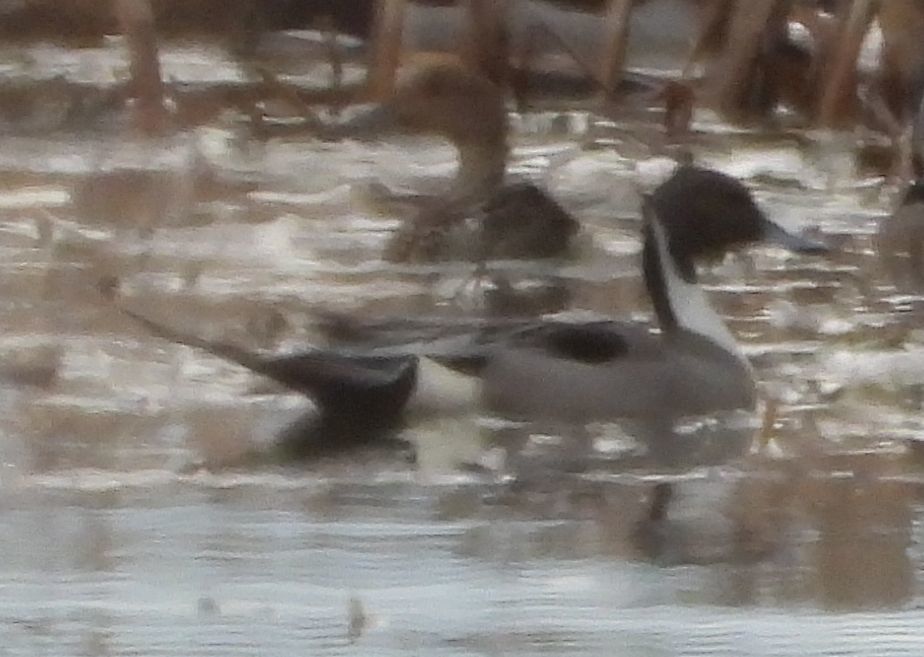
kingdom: Animalia
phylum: Chordata
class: Aves
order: Anseriformes
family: Anatidae
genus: Anas
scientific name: Anas acuta
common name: Northern pintail
